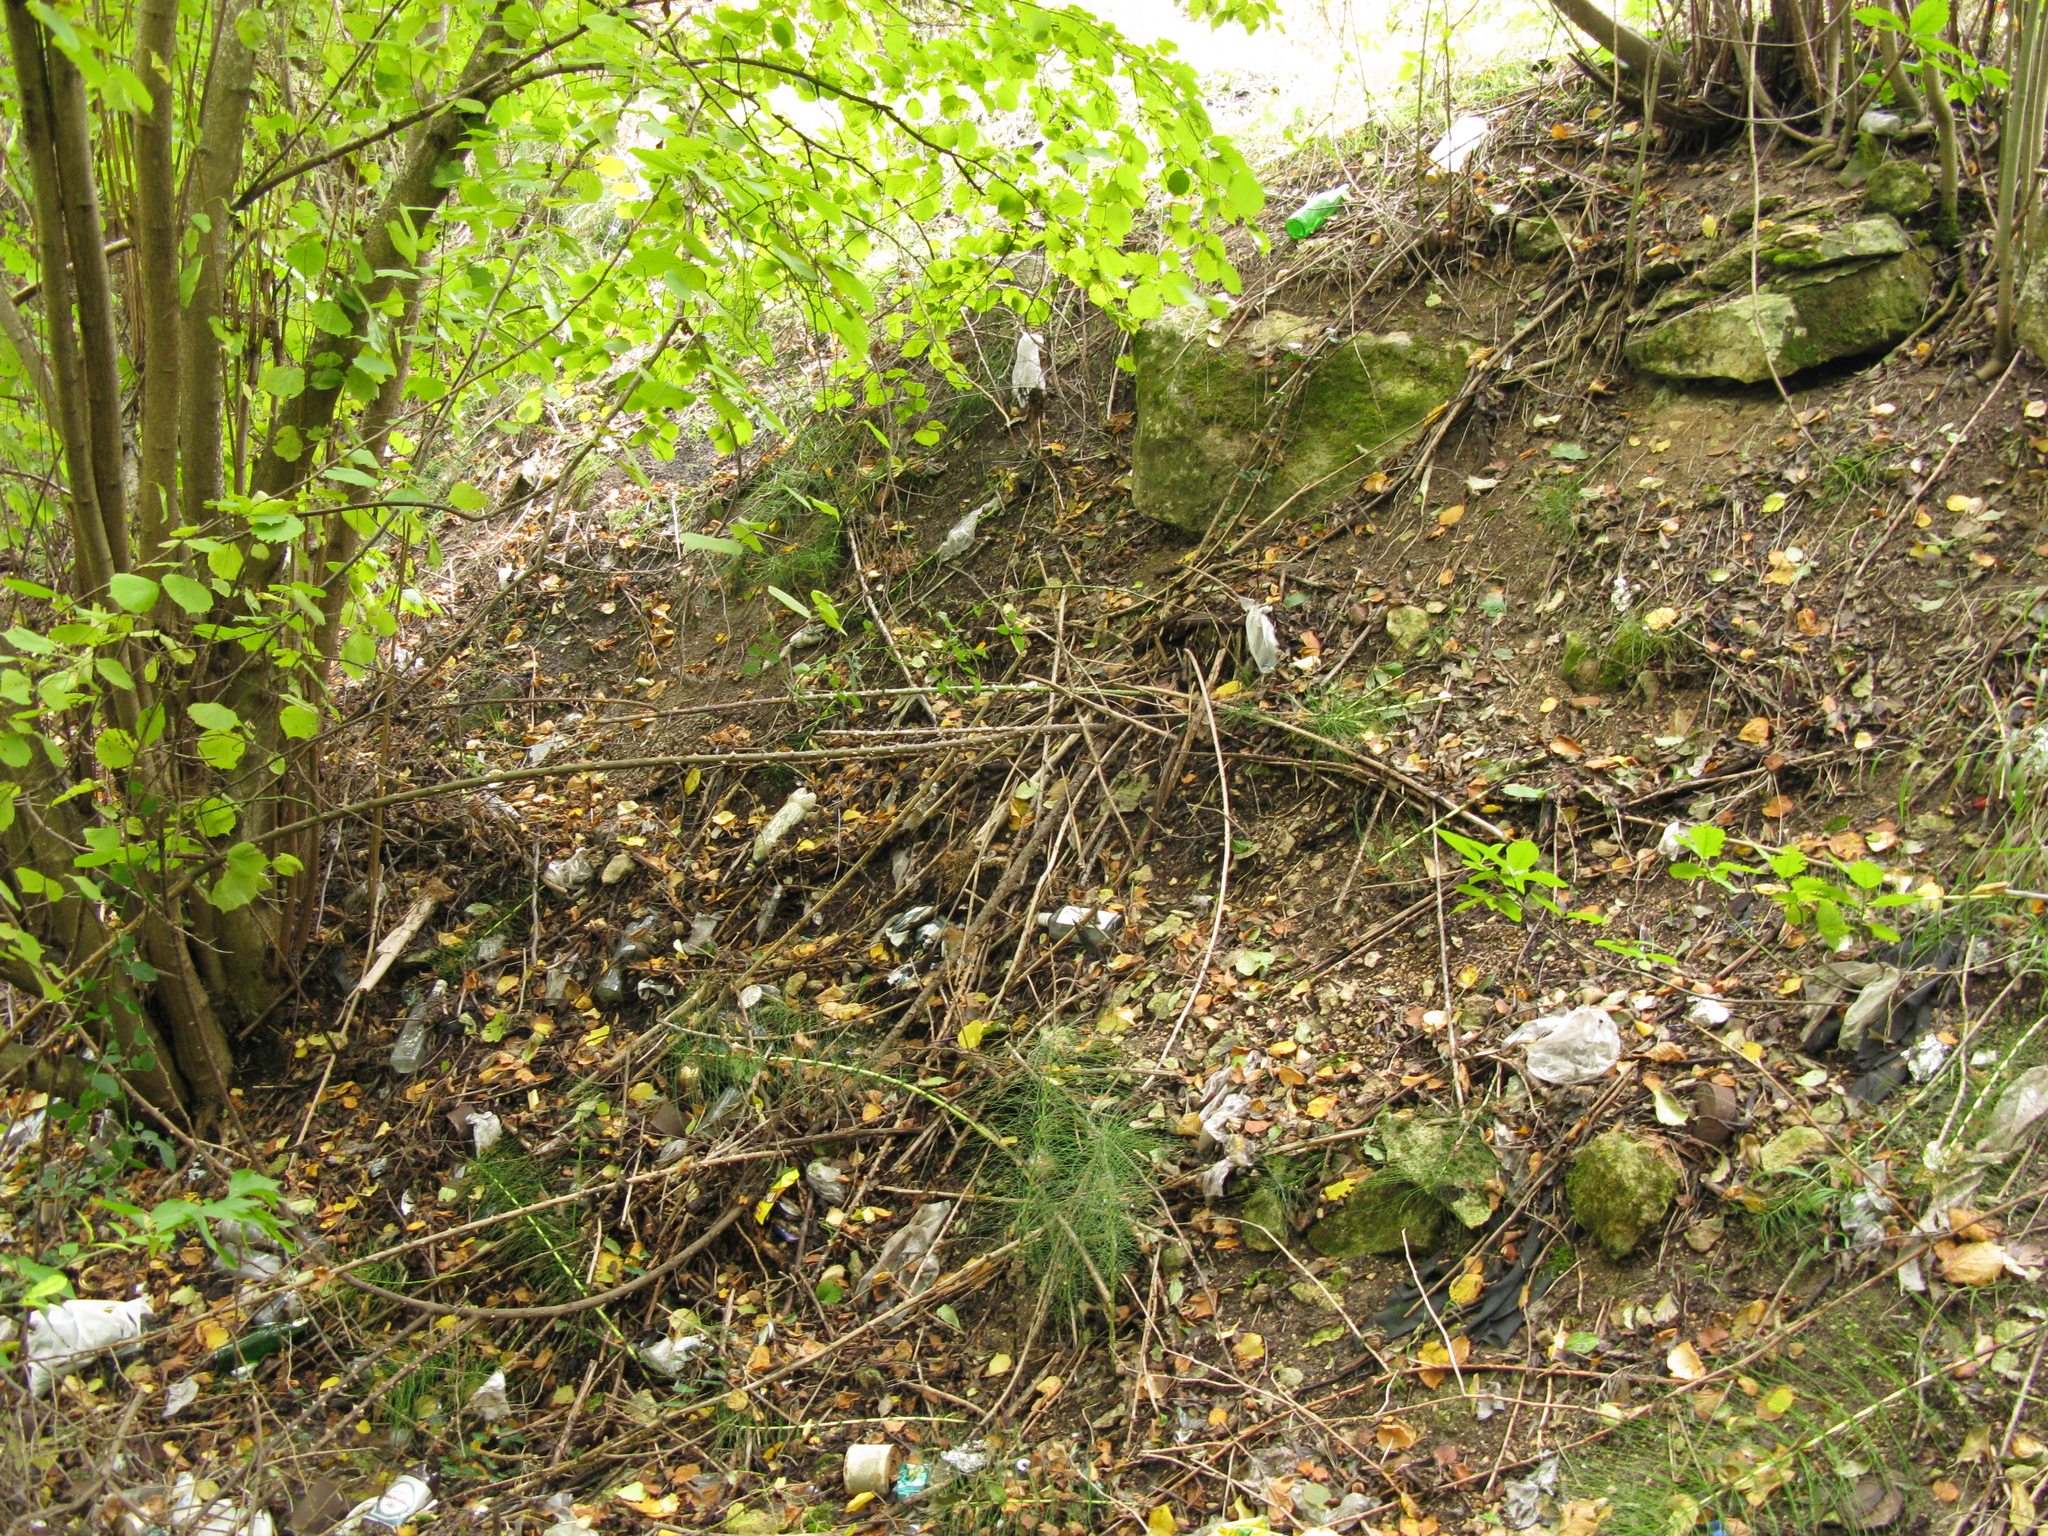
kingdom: Plantae
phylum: Tracheophyta
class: Magnoliopsida
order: Fagales
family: Betulaceae
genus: Corylus
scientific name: Corylus avellana
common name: European hazel
